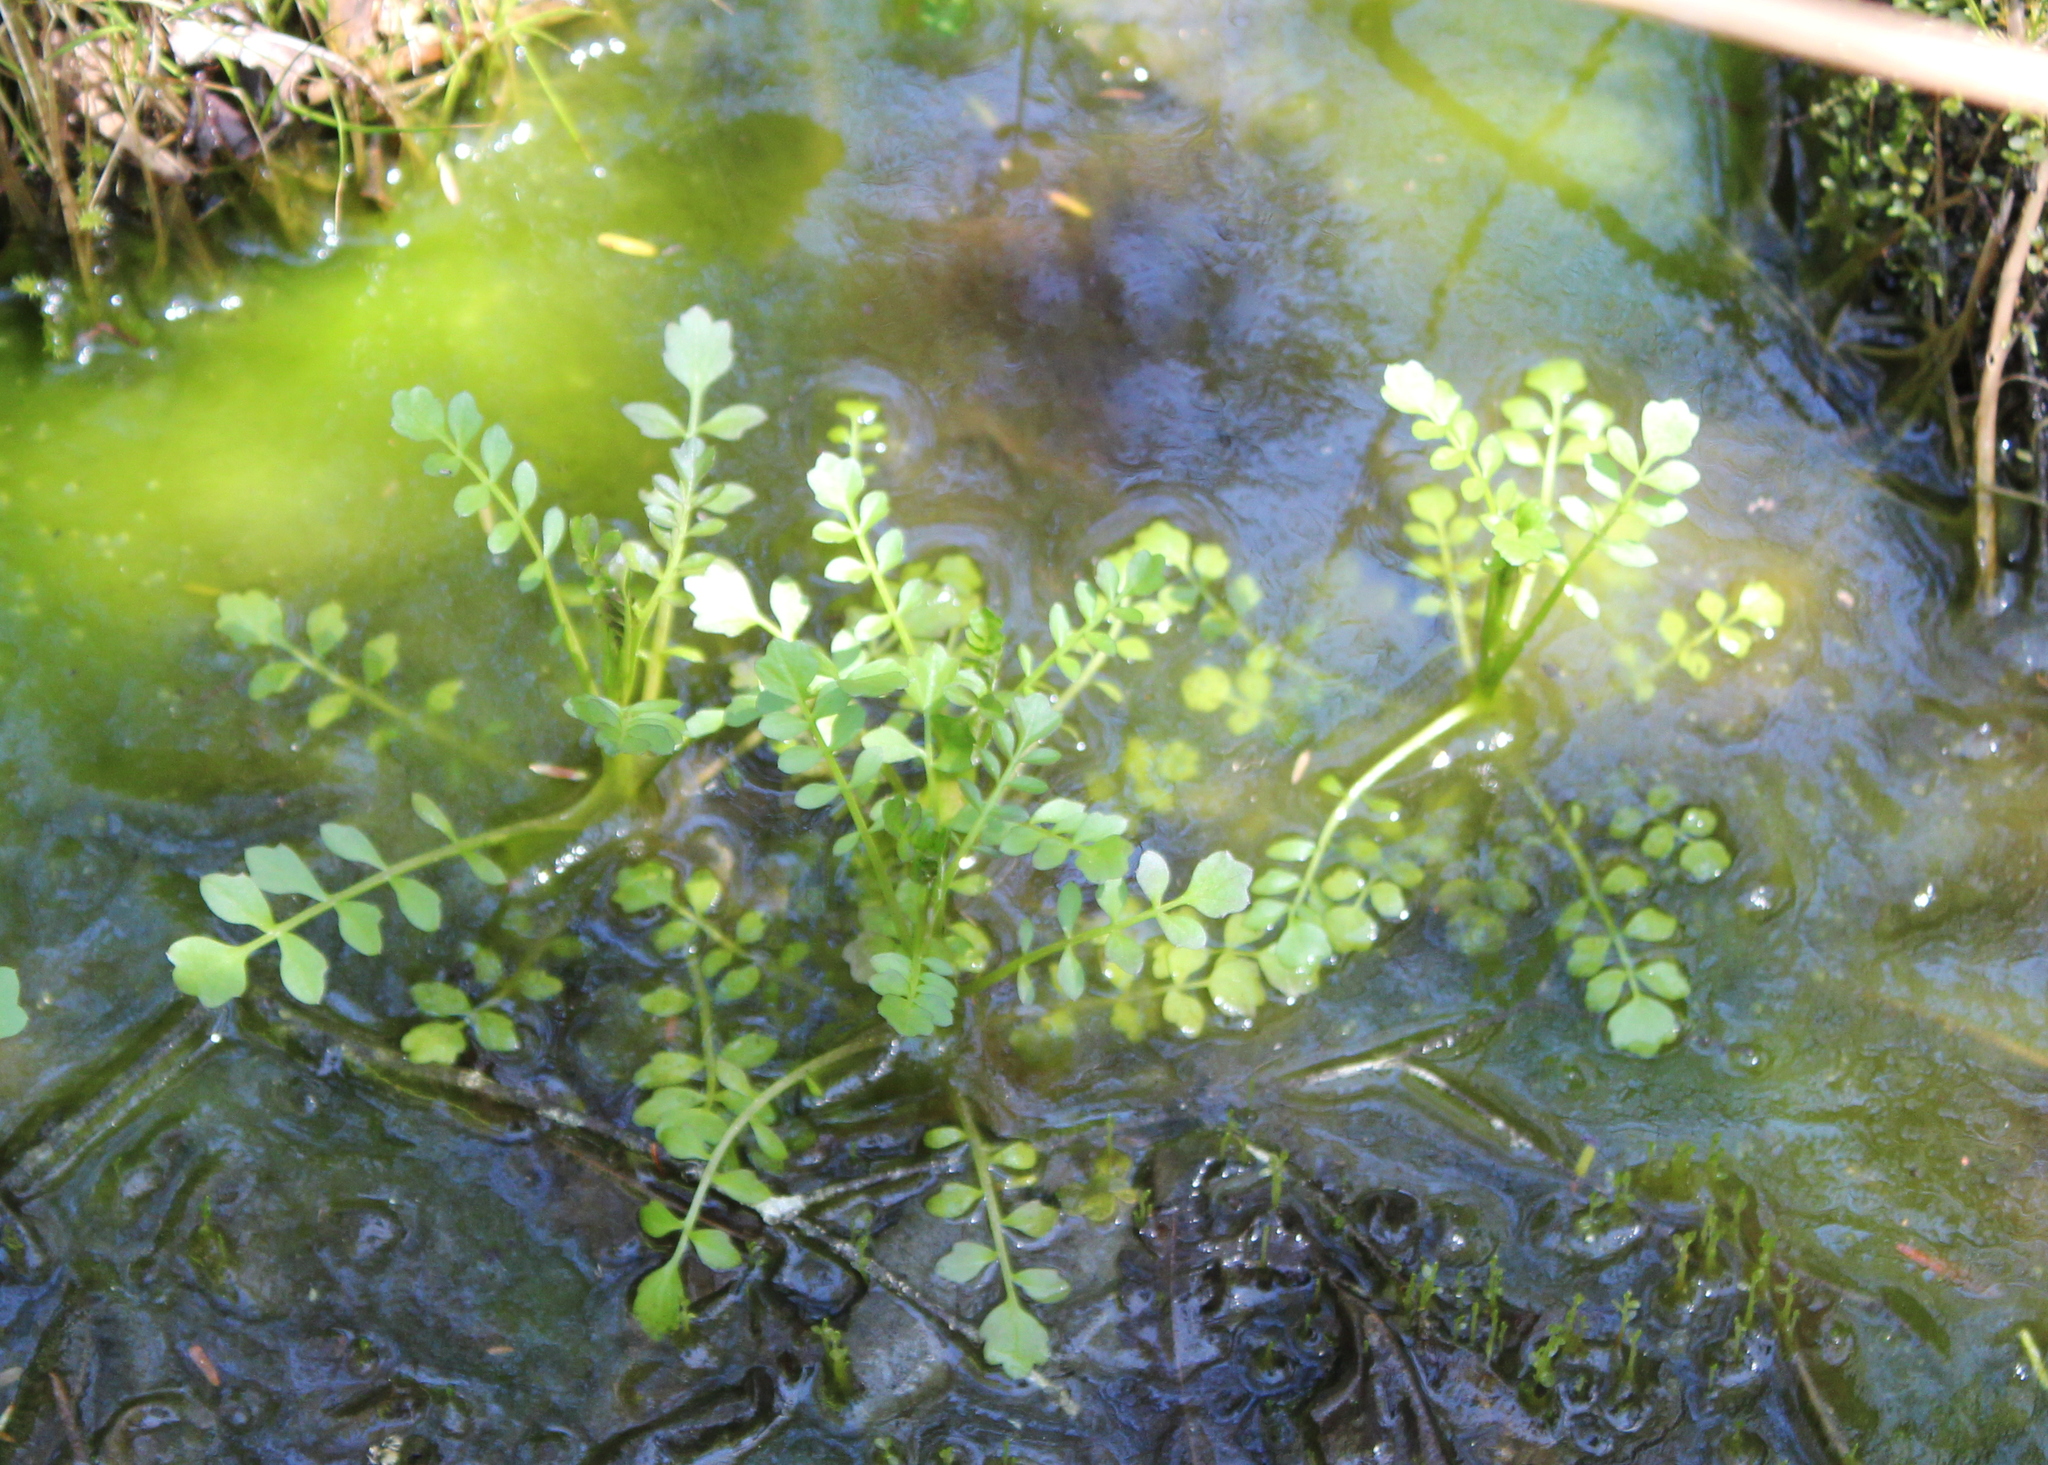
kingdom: Plantae
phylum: Tracheophyta
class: Magnoliopsida
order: Brassicales
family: Brassicaceae
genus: Cardamine
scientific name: Cardamine pensylvanica
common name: Pennsylvania bittercress
